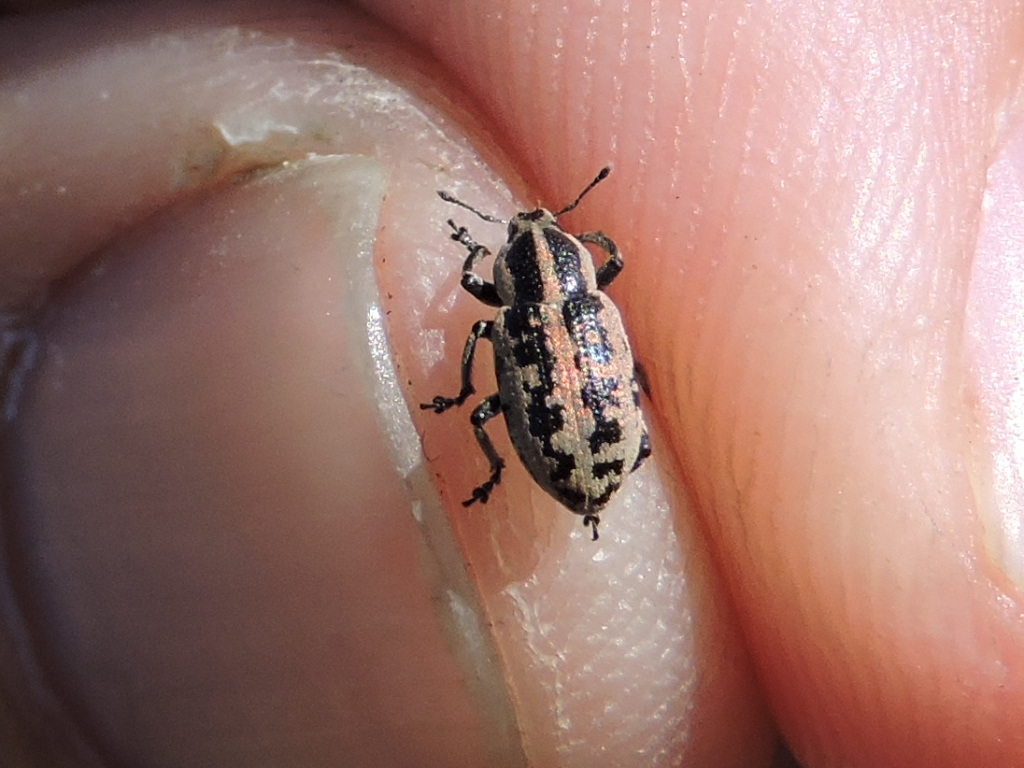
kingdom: Animalia
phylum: Arthropoda
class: Insecta
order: Coleoptera
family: Curculionidae
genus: Eudiagogus
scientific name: Eudiagogus rosenschoeldi
